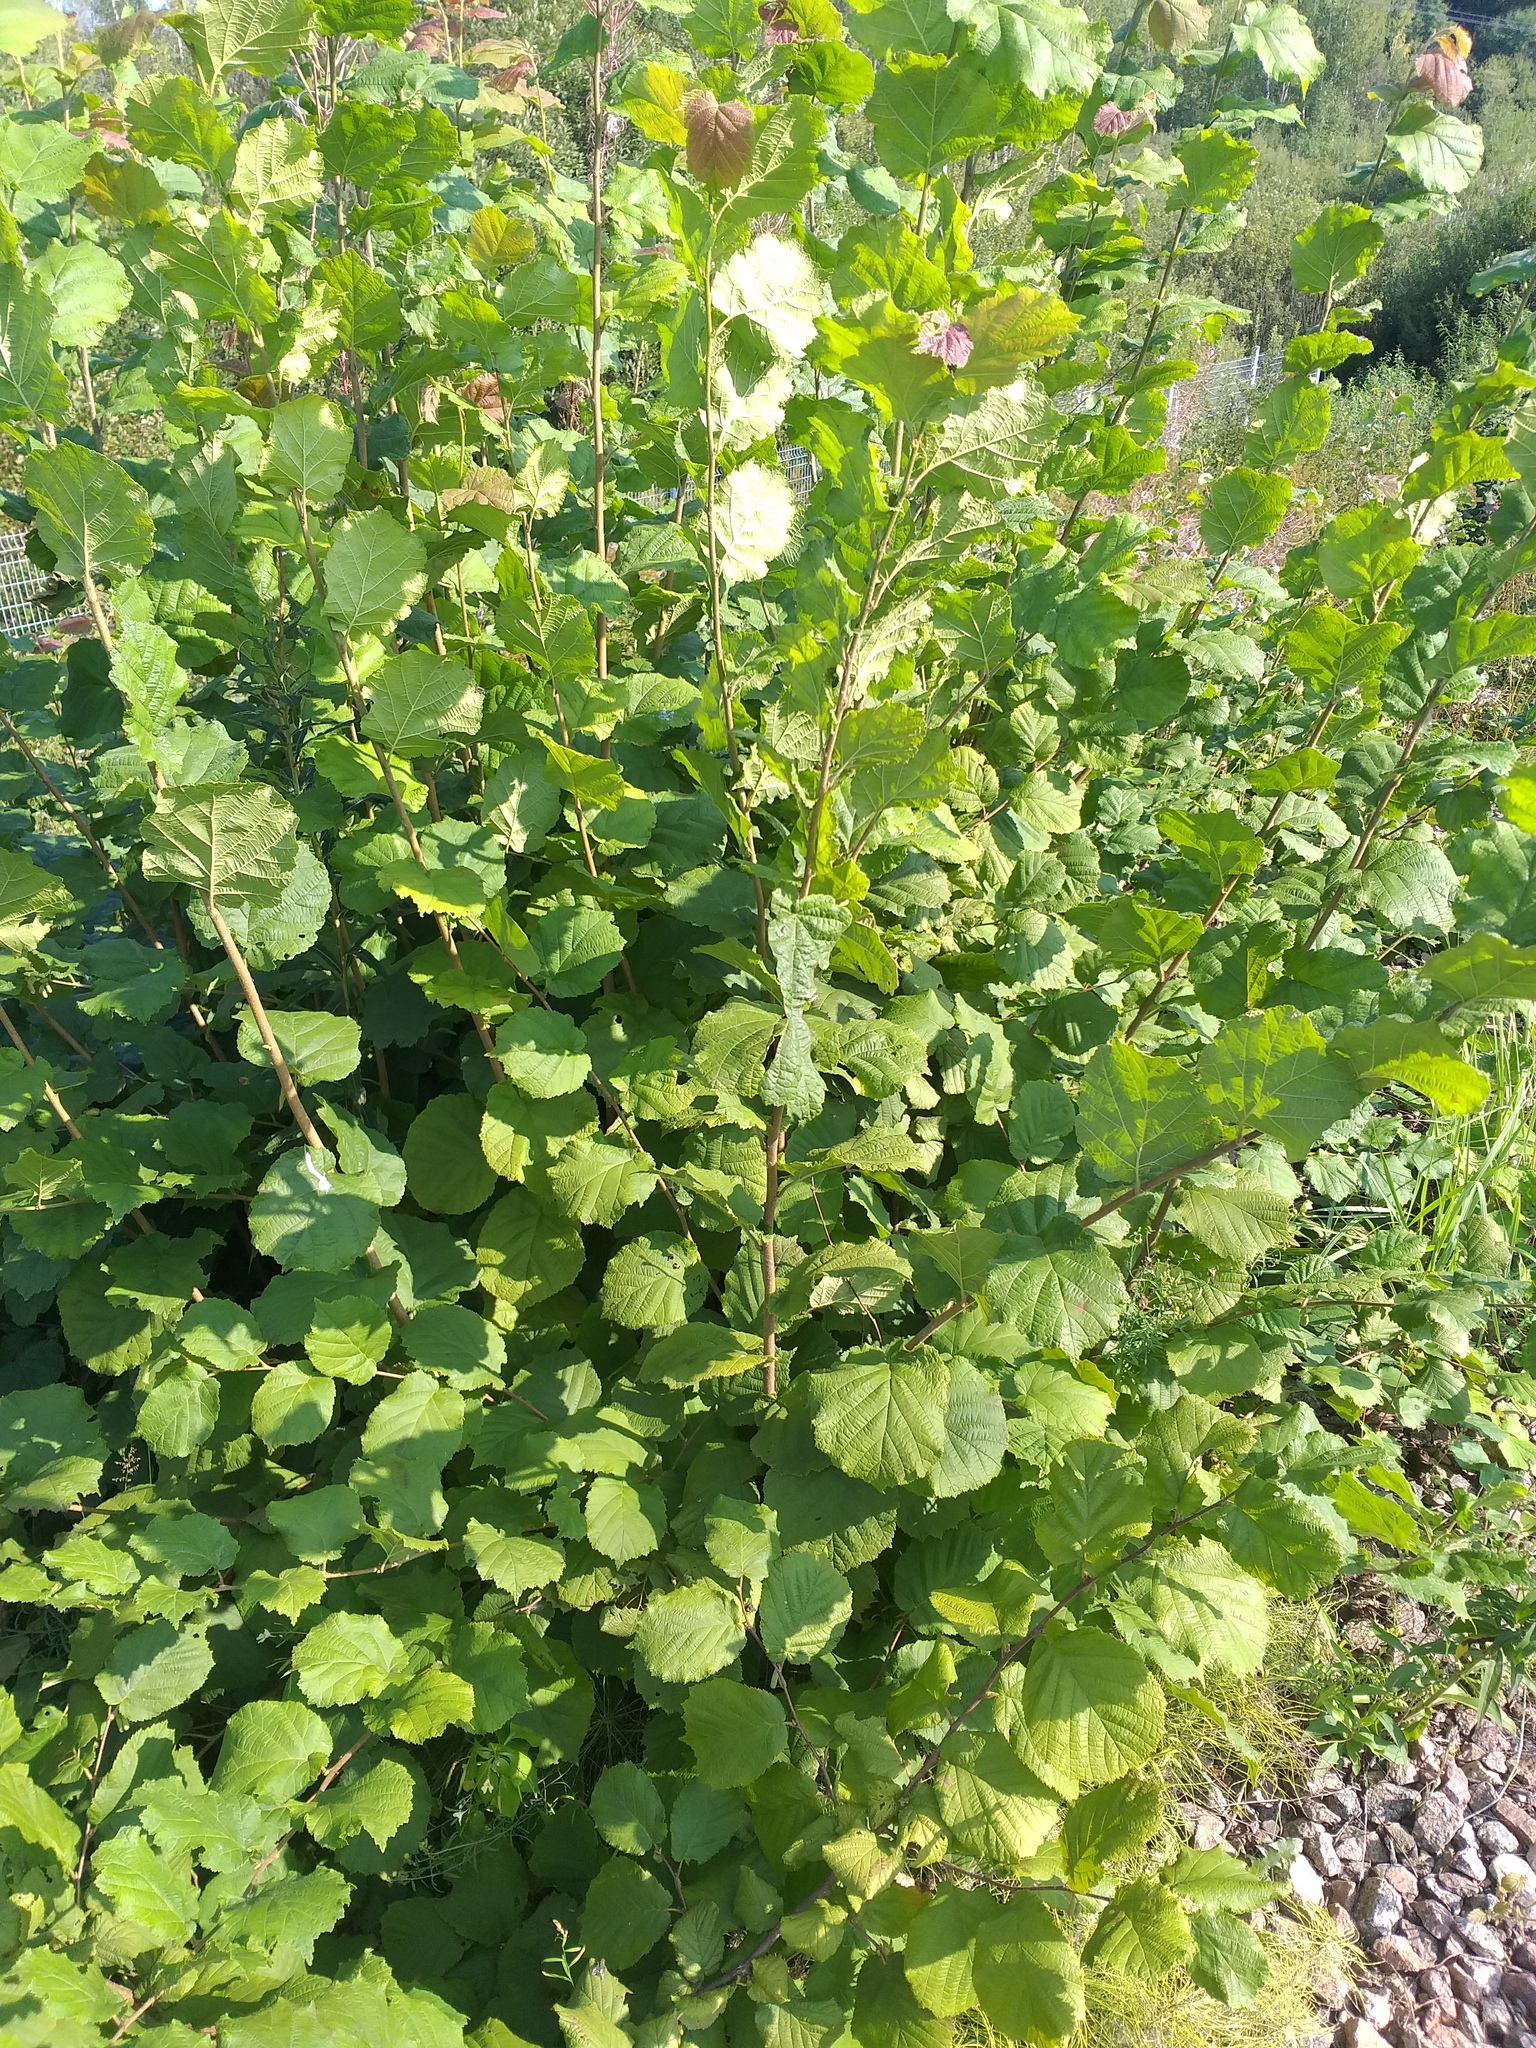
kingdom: Plantae
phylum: Tracheophyta
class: Magnoliopsida
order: Fagales
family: Betulaceae
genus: Corylus
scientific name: Corylus avellana
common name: European hazel
